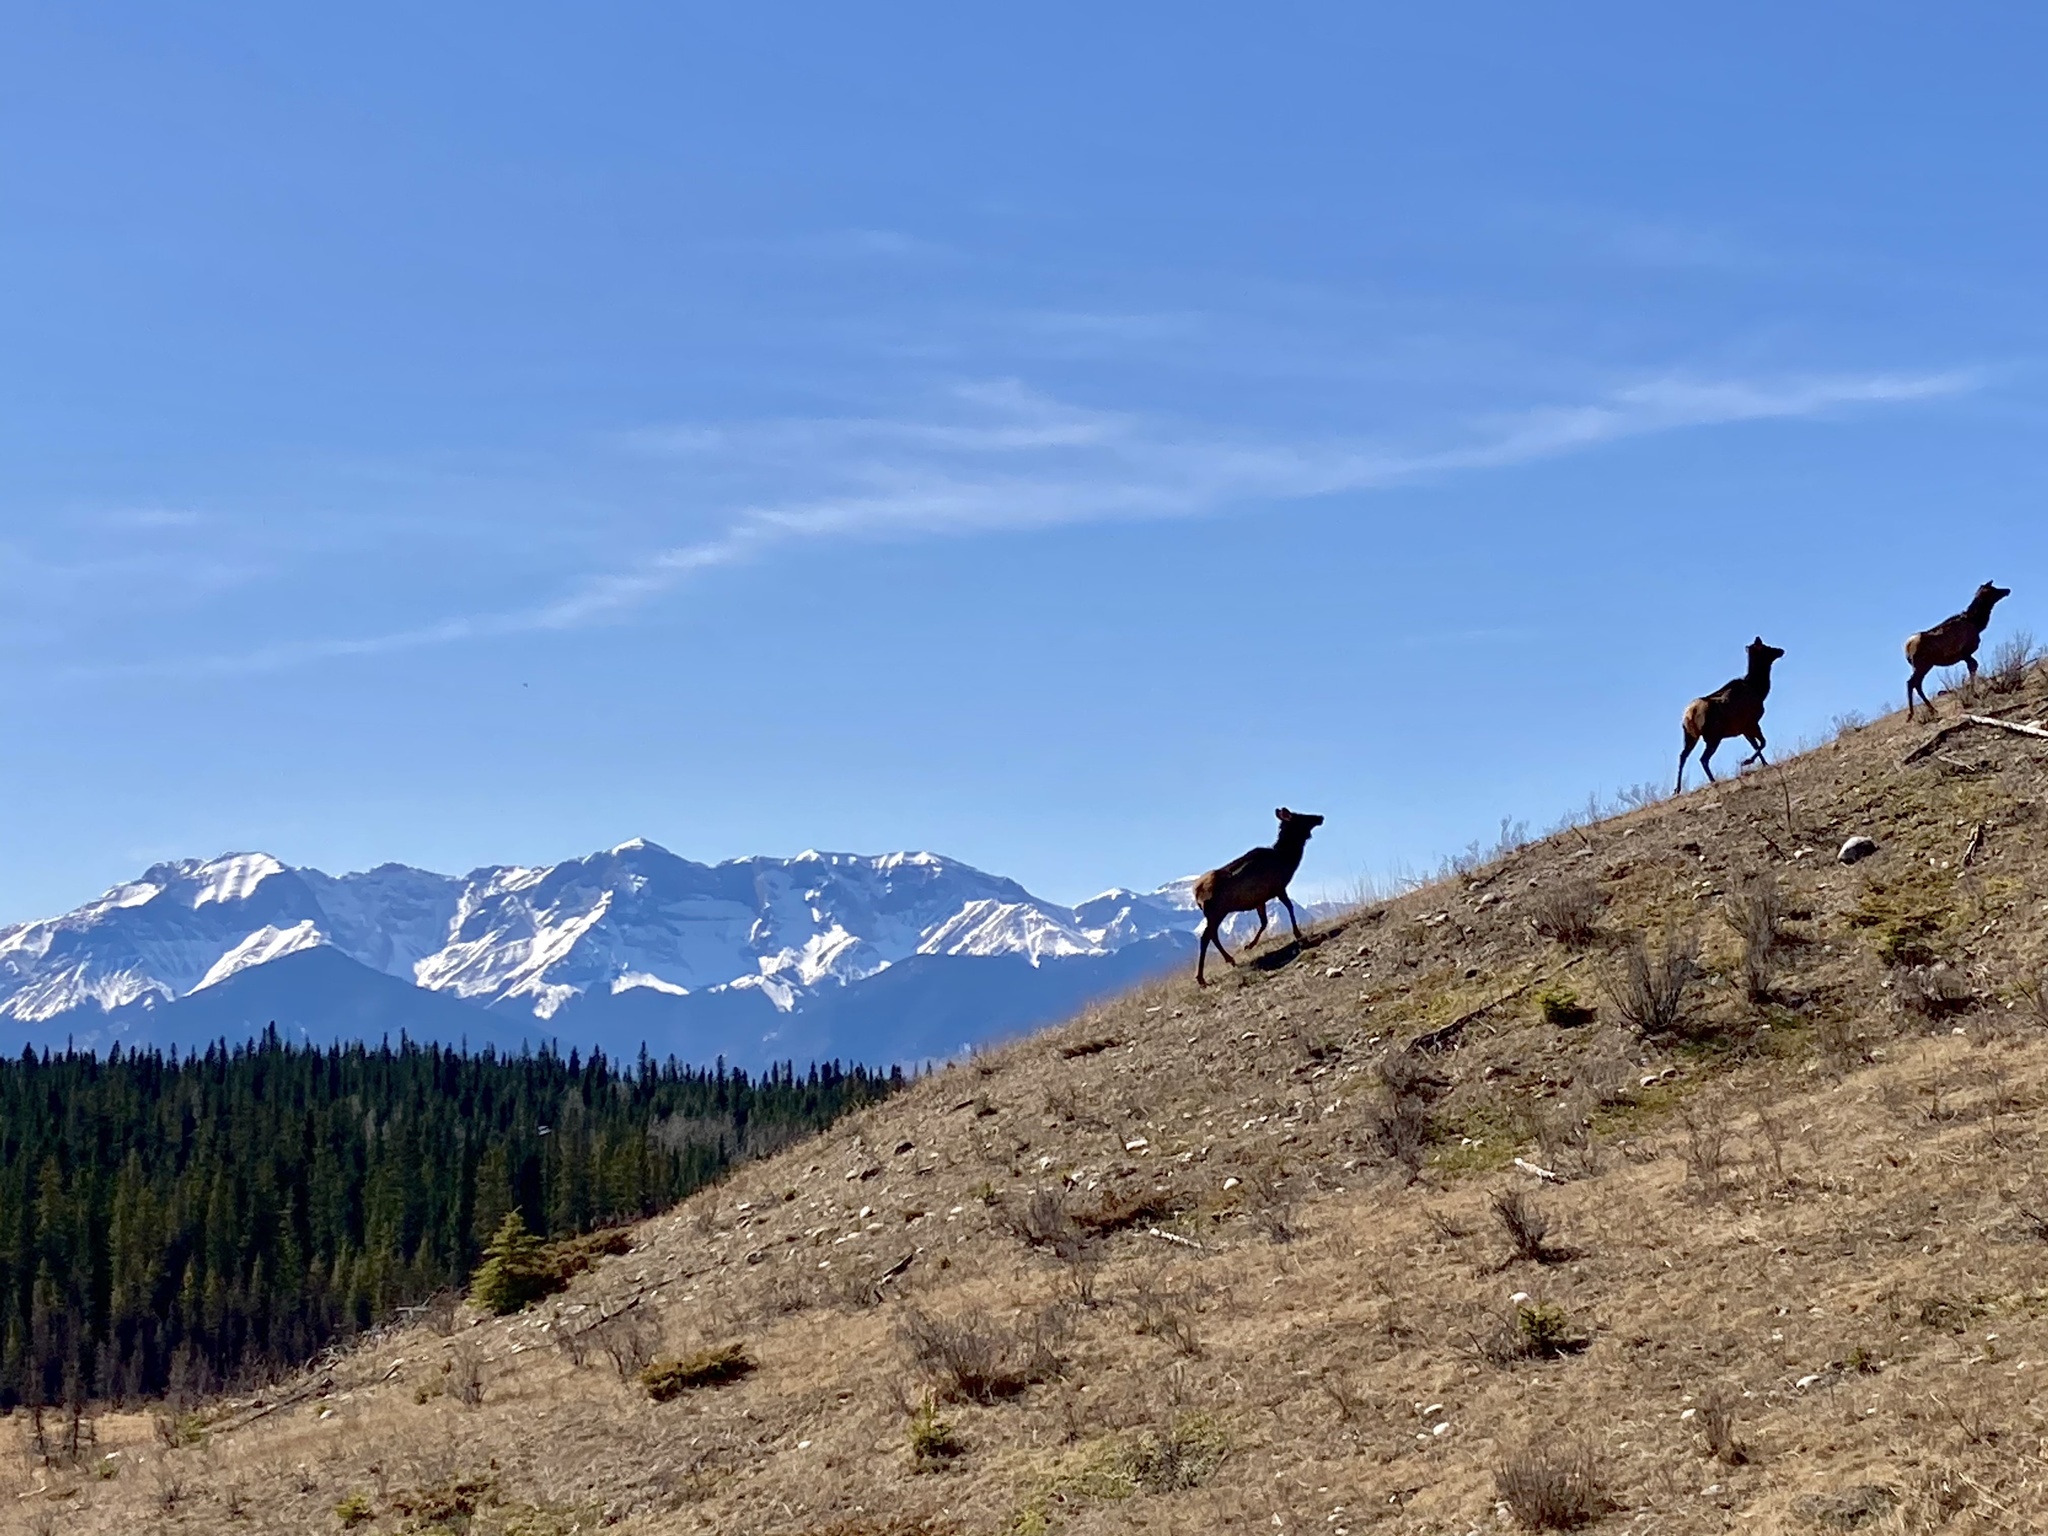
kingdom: Animalia
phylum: Chordata
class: Mammalia
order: Artiodactyla
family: Cervidae
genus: Cervus
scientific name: Cervus elaphus
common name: Red deer
